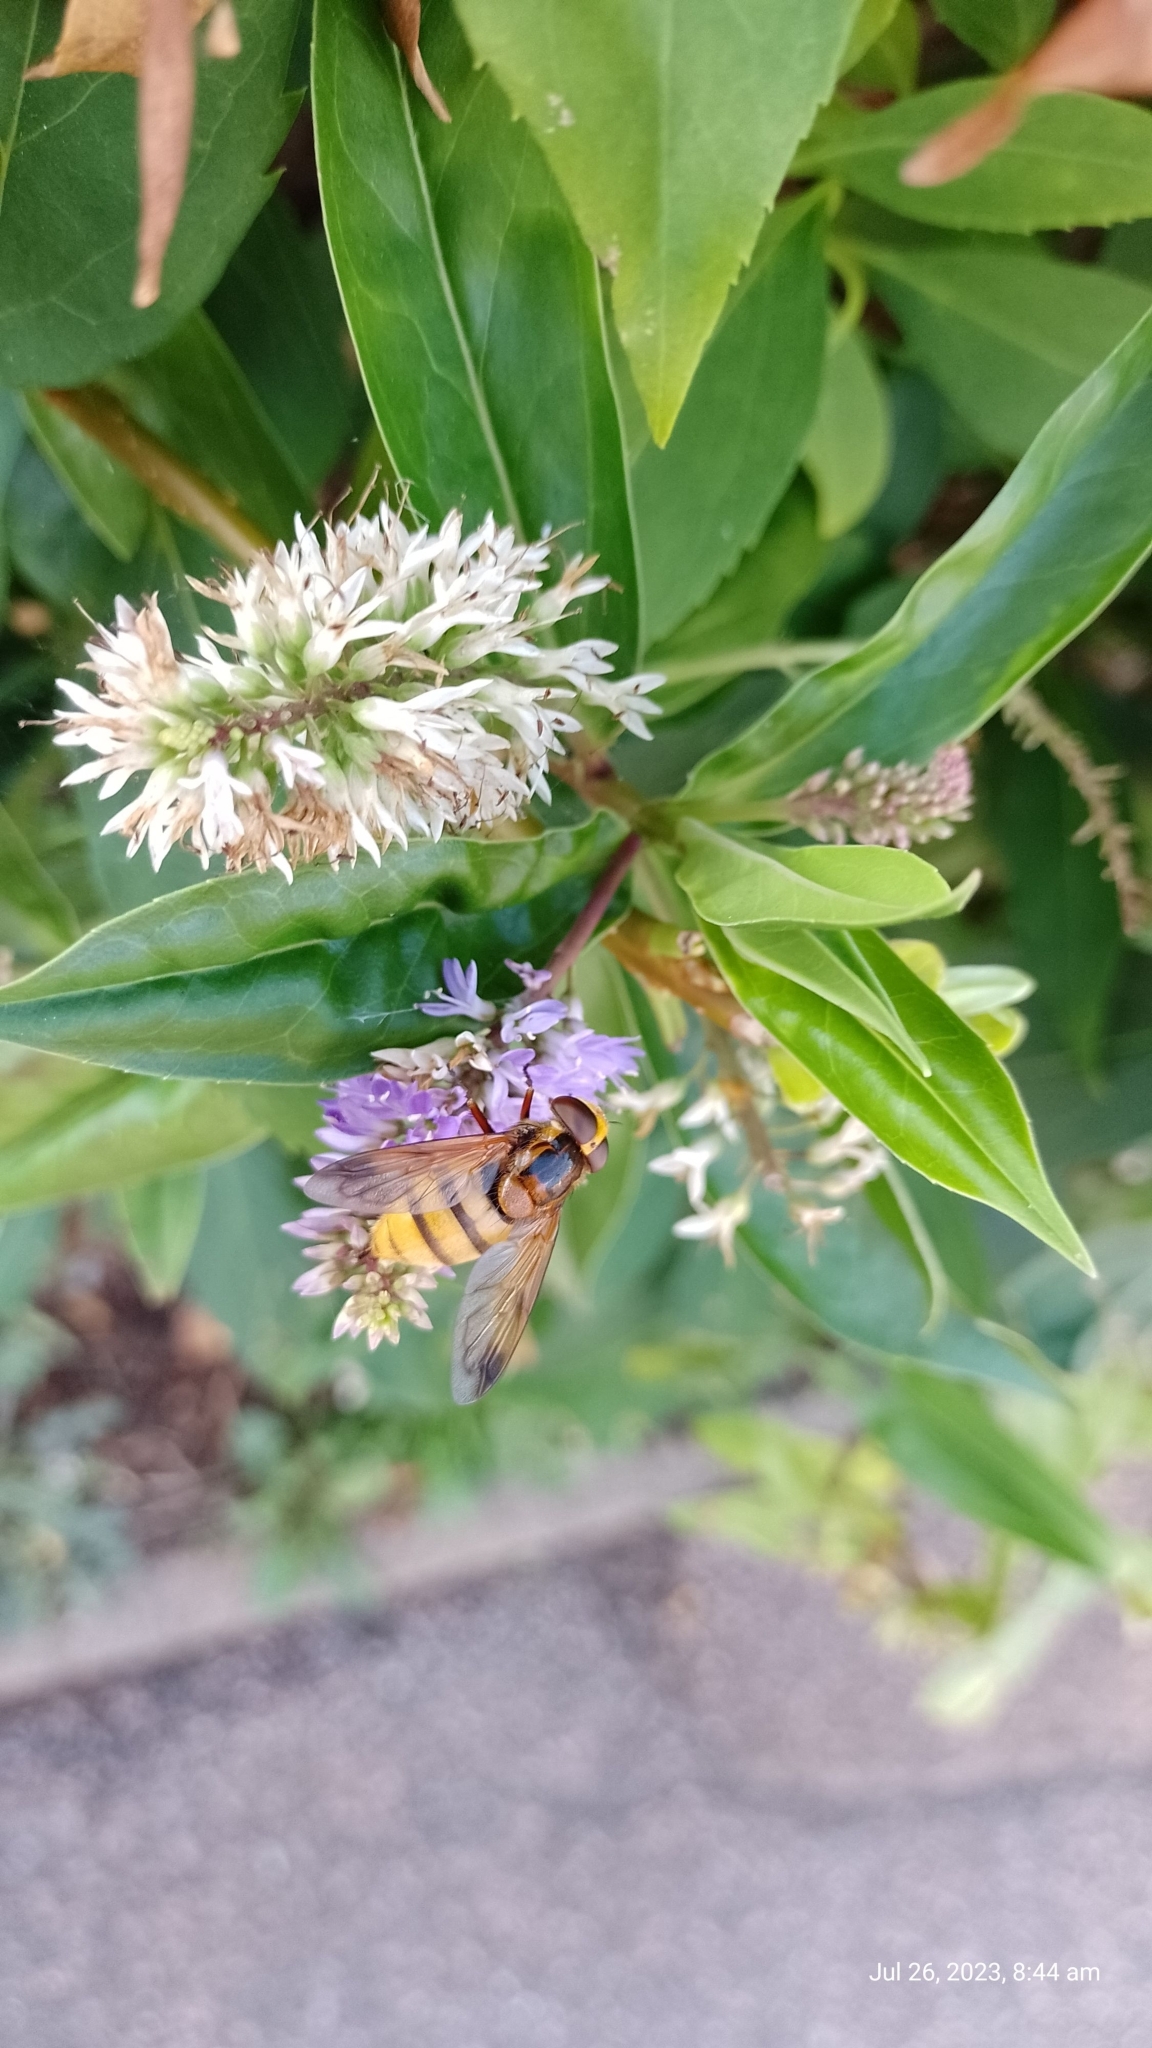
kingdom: Animalia
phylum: Arthropoda
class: Insecta
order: Diptera
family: Syrphidae
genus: Volucella
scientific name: Volucella inanis
